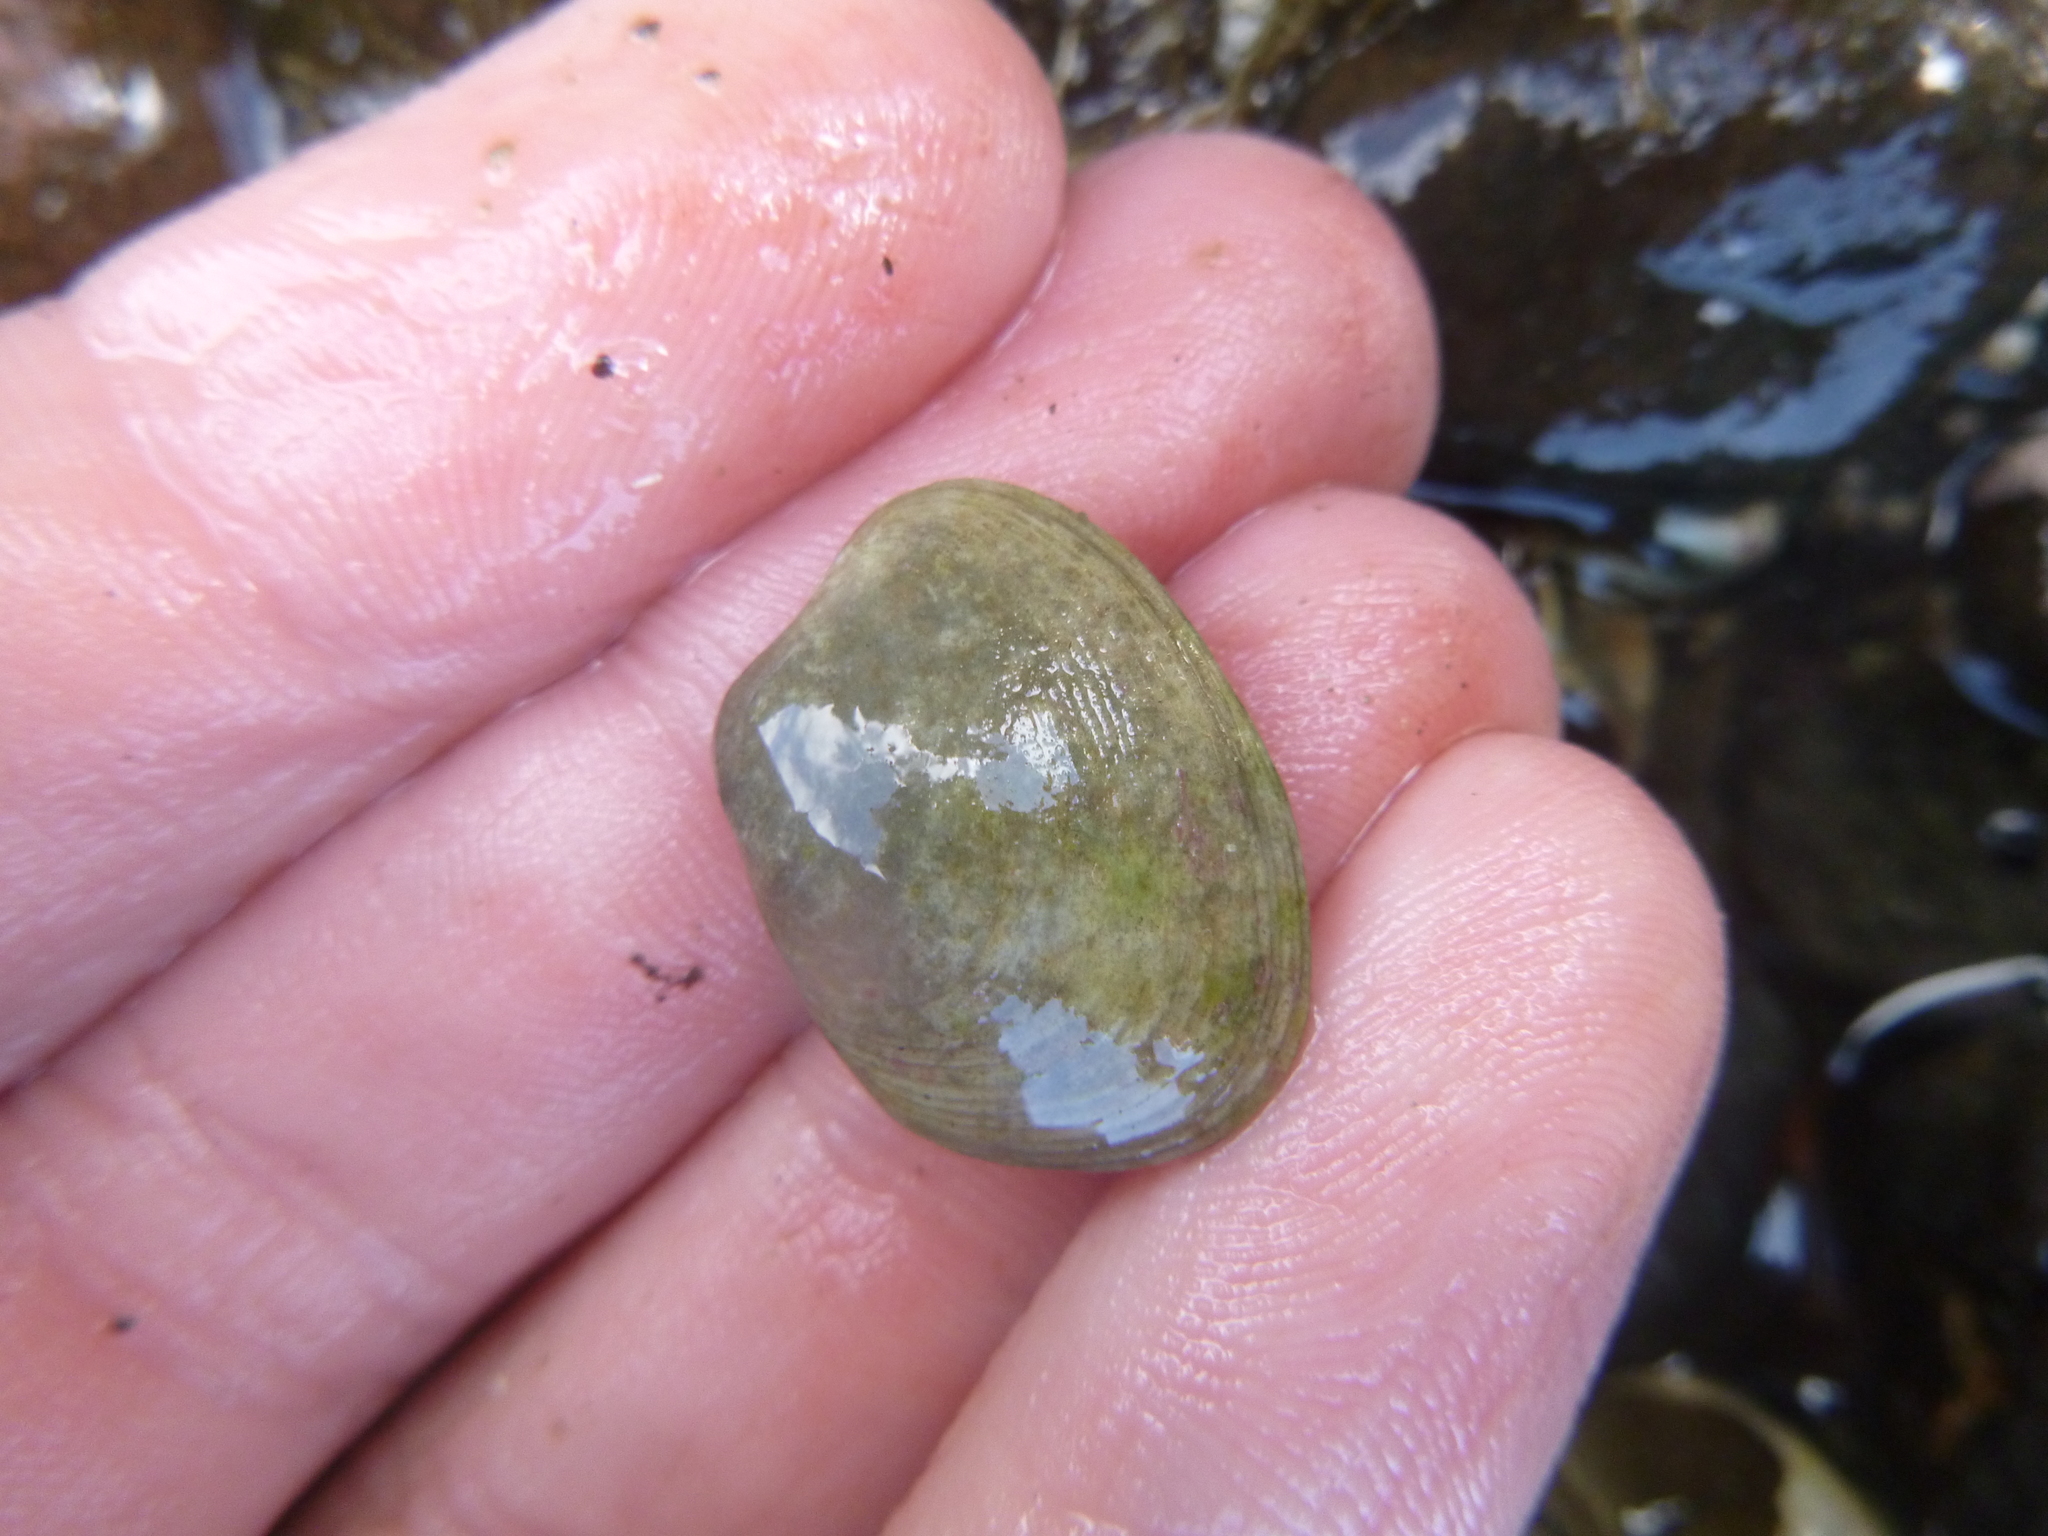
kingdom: Animalia
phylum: Mollusca
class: Bivalvia
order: Venerida
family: Veneridae
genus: Venerupis
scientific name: Venerupis largillierti
